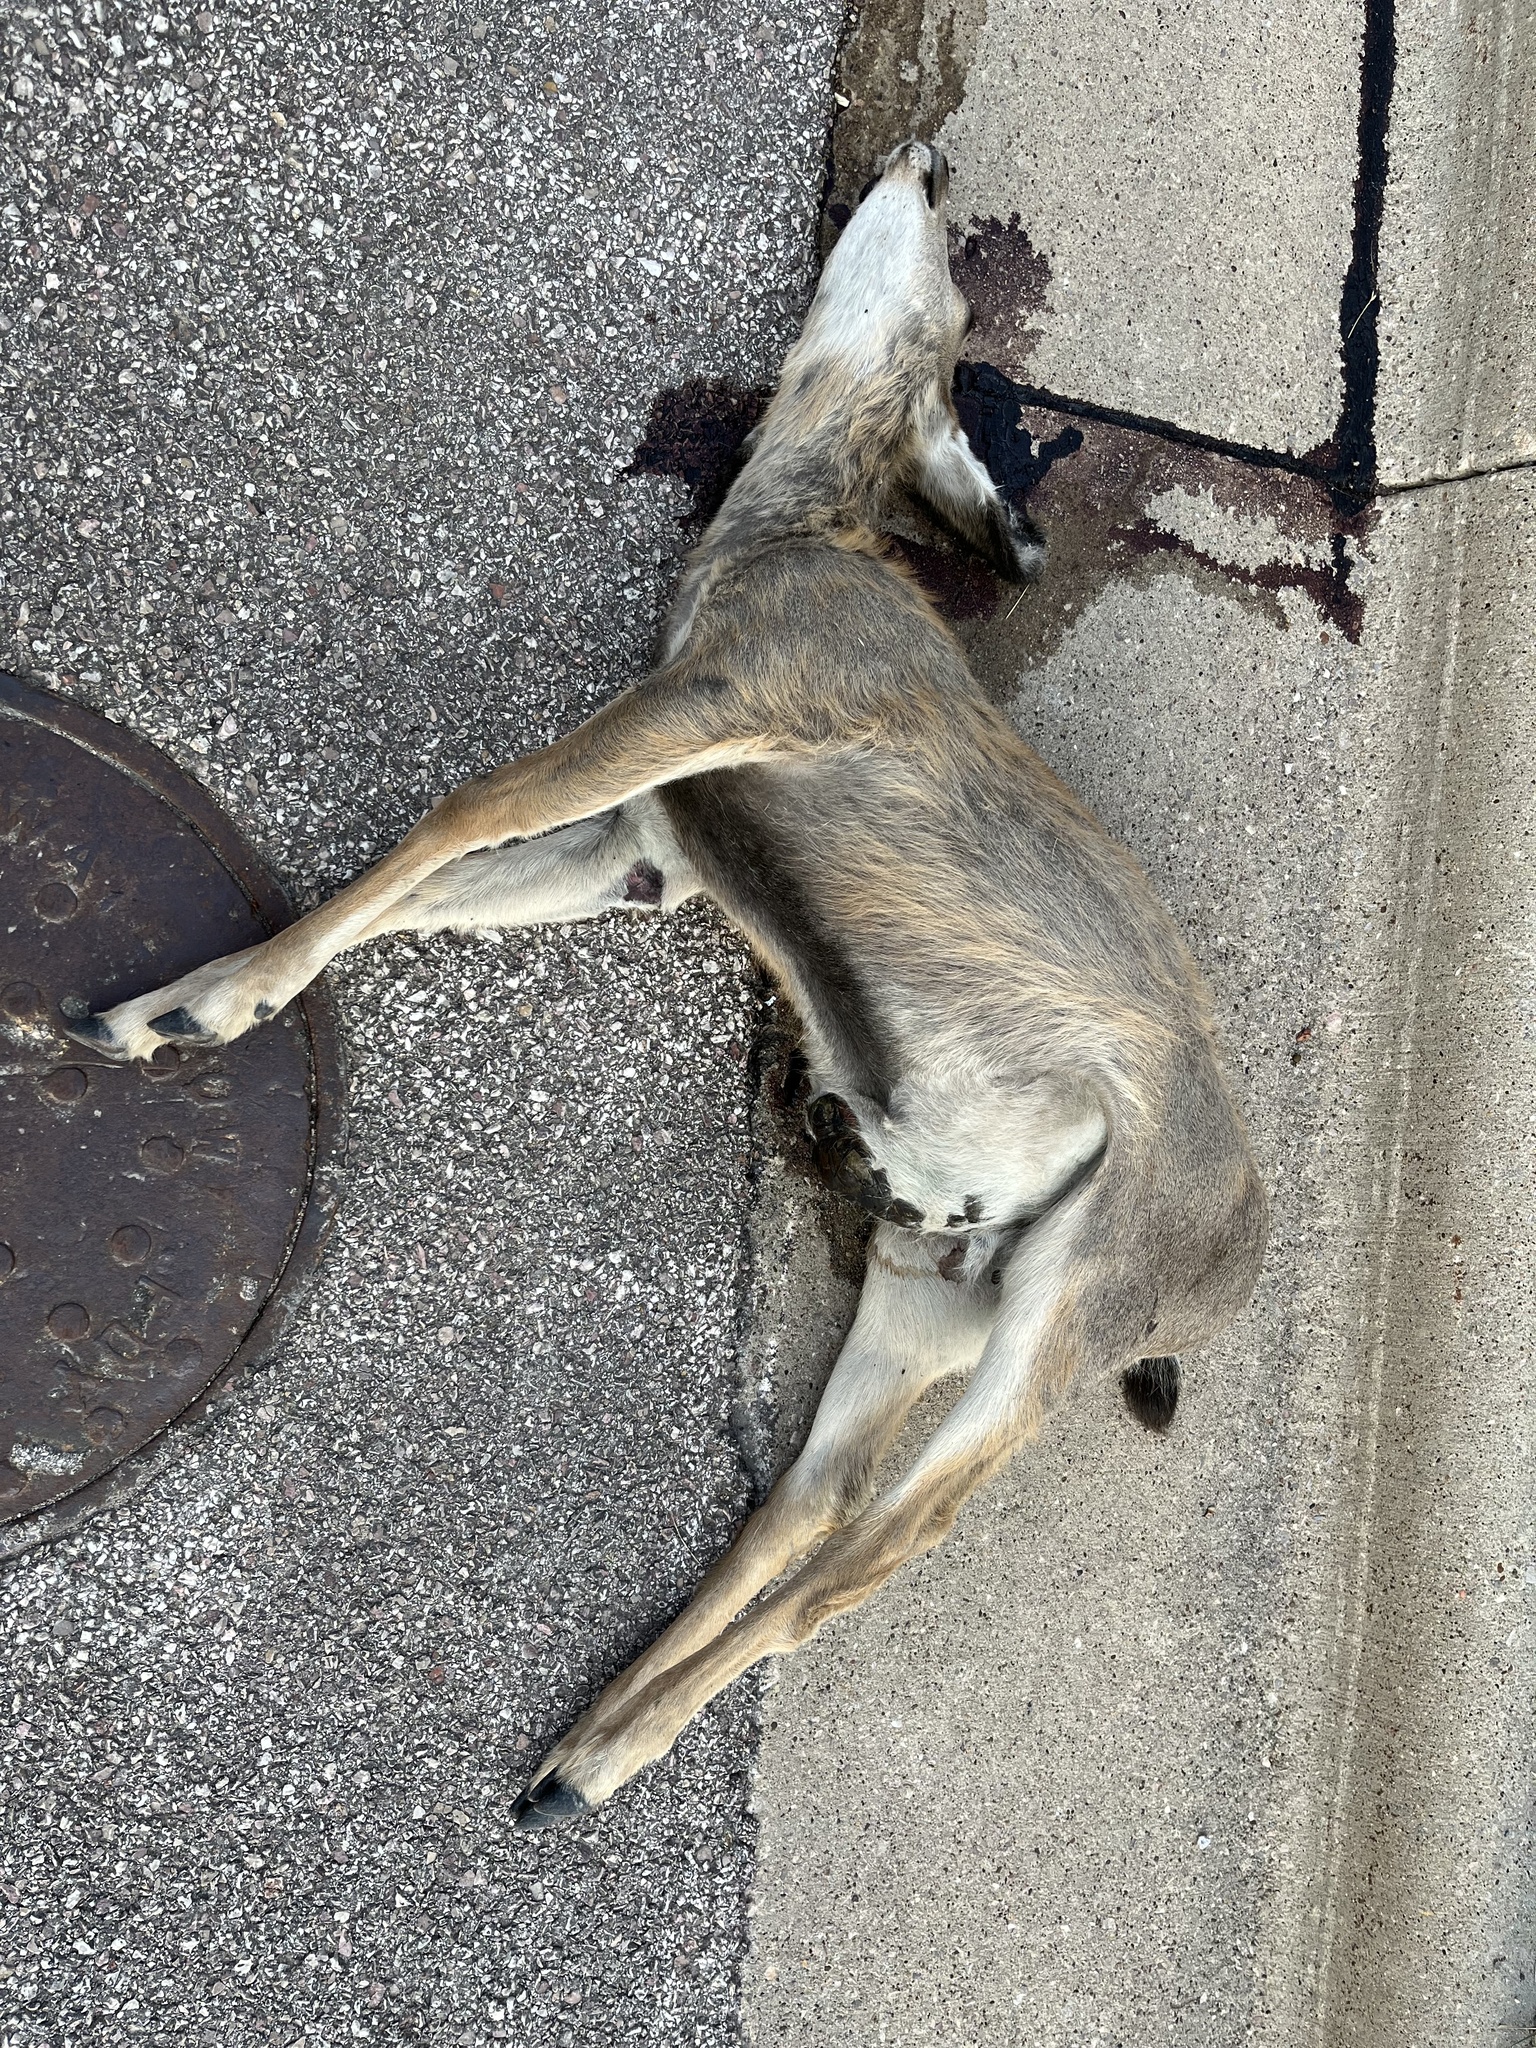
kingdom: Animalia
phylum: Chordata
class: Mammalia
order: Artiodactyla
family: Cervidae
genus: Odocoileus
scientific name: Odocoileus hemionus
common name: Mule deer
